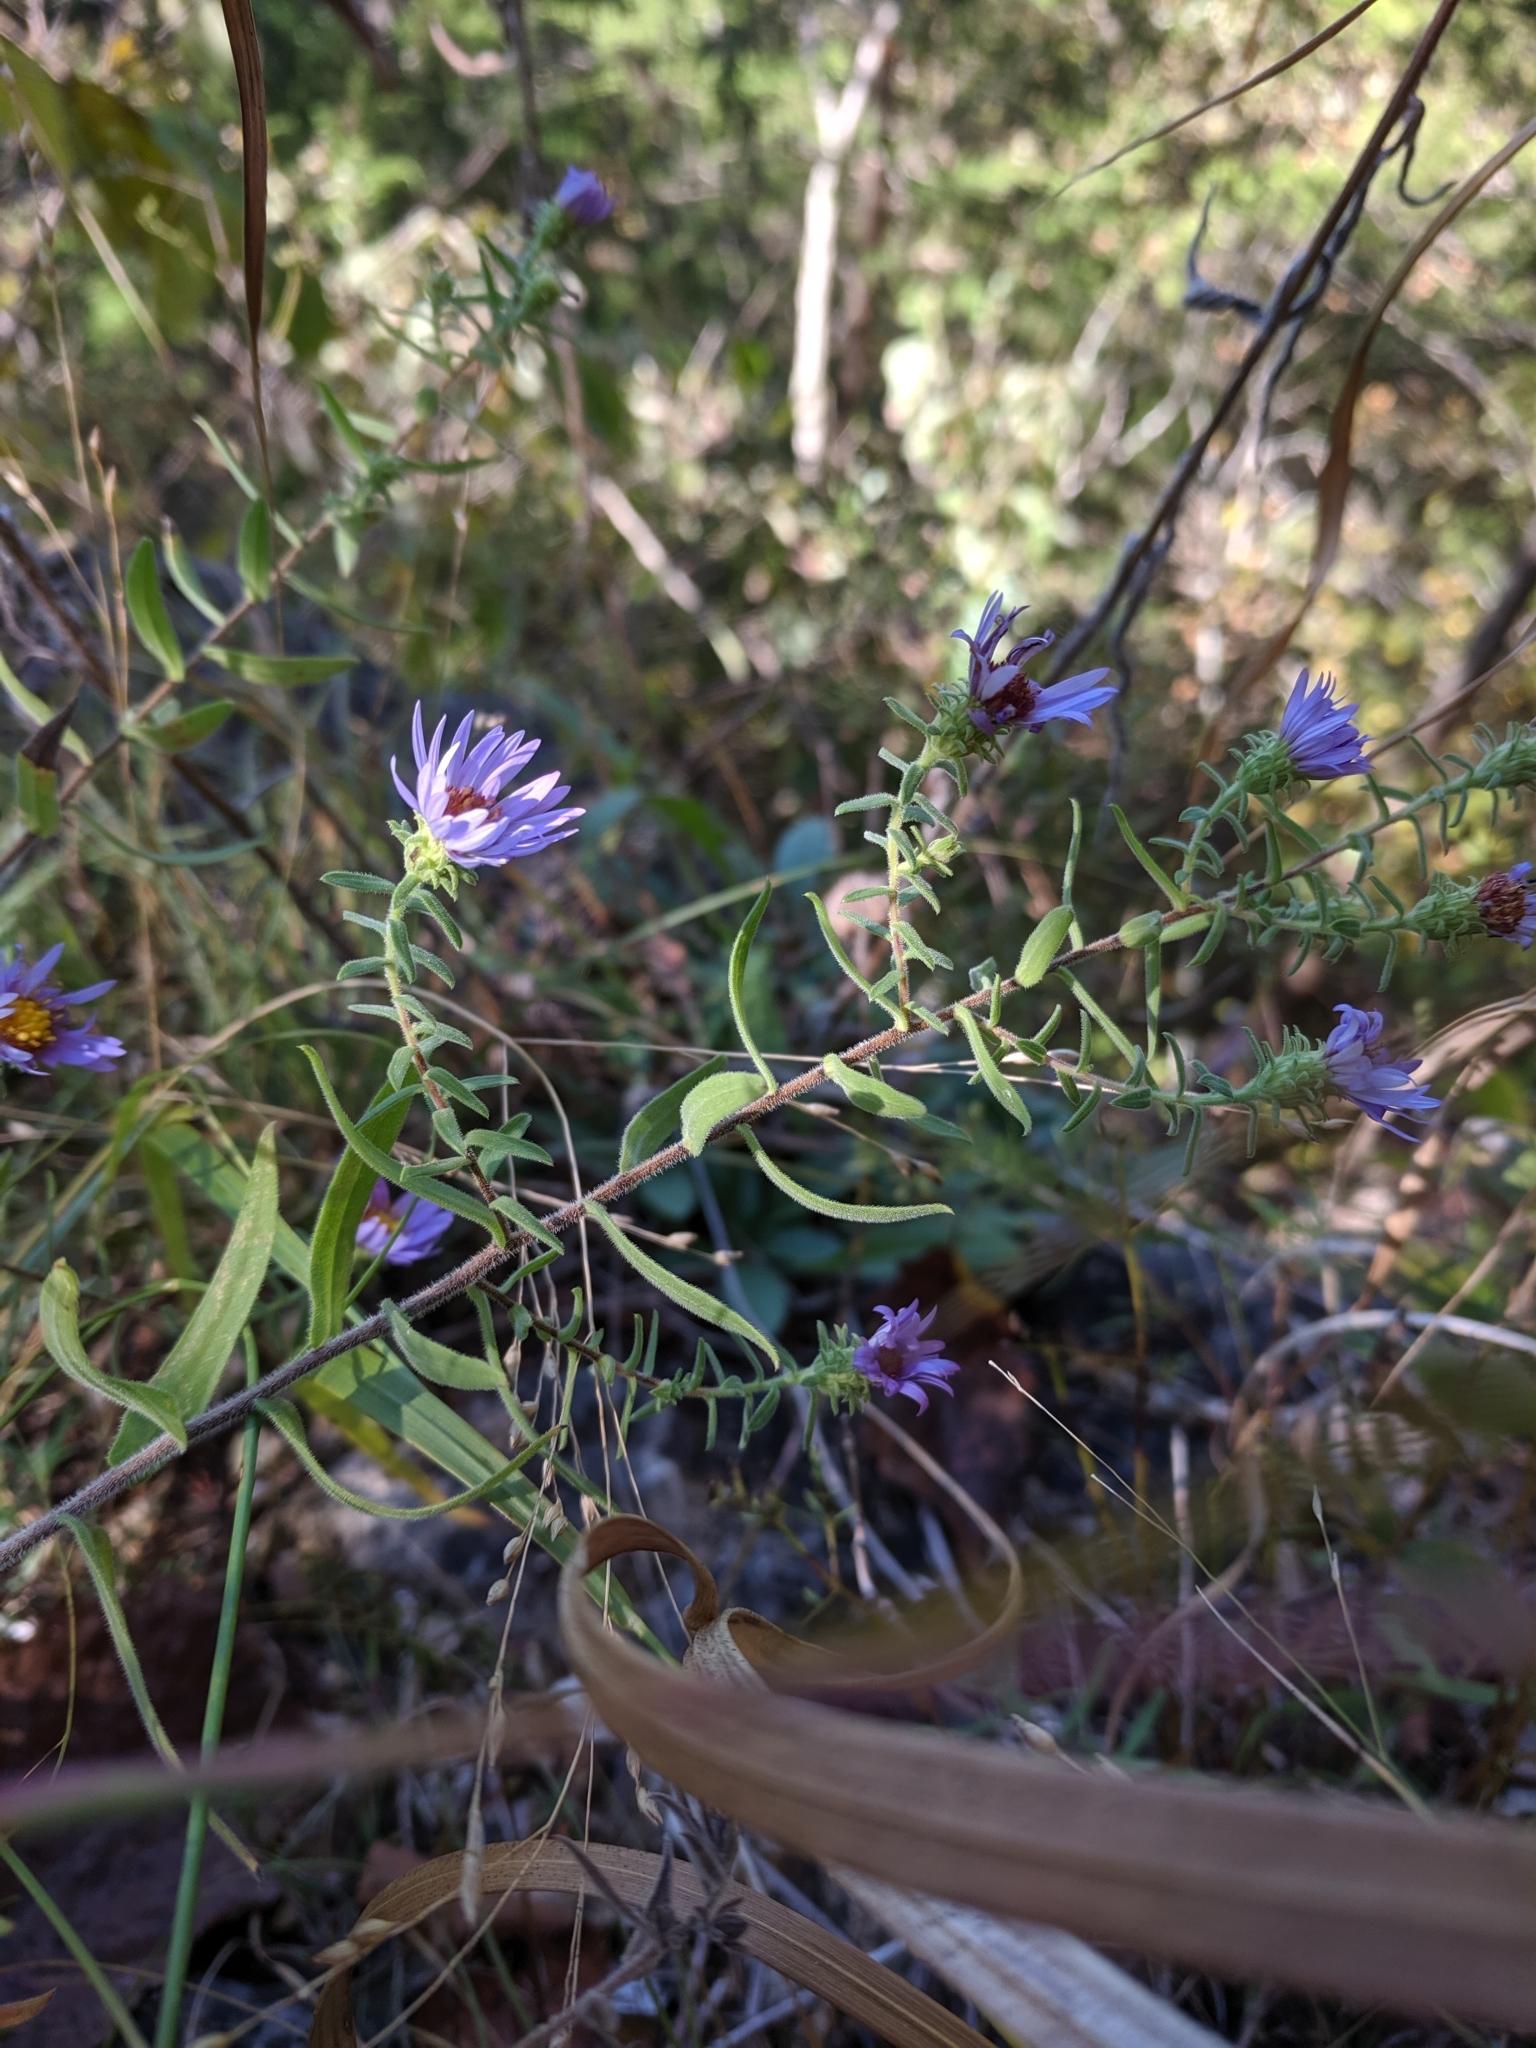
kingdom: Plantae
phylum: Tracheophyta
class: Magnoliopsida
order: Asterales
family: Asteraceae
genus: Symphyotrichum
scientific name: Symphyotrichum oblongifolium
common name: Aromatic aster
